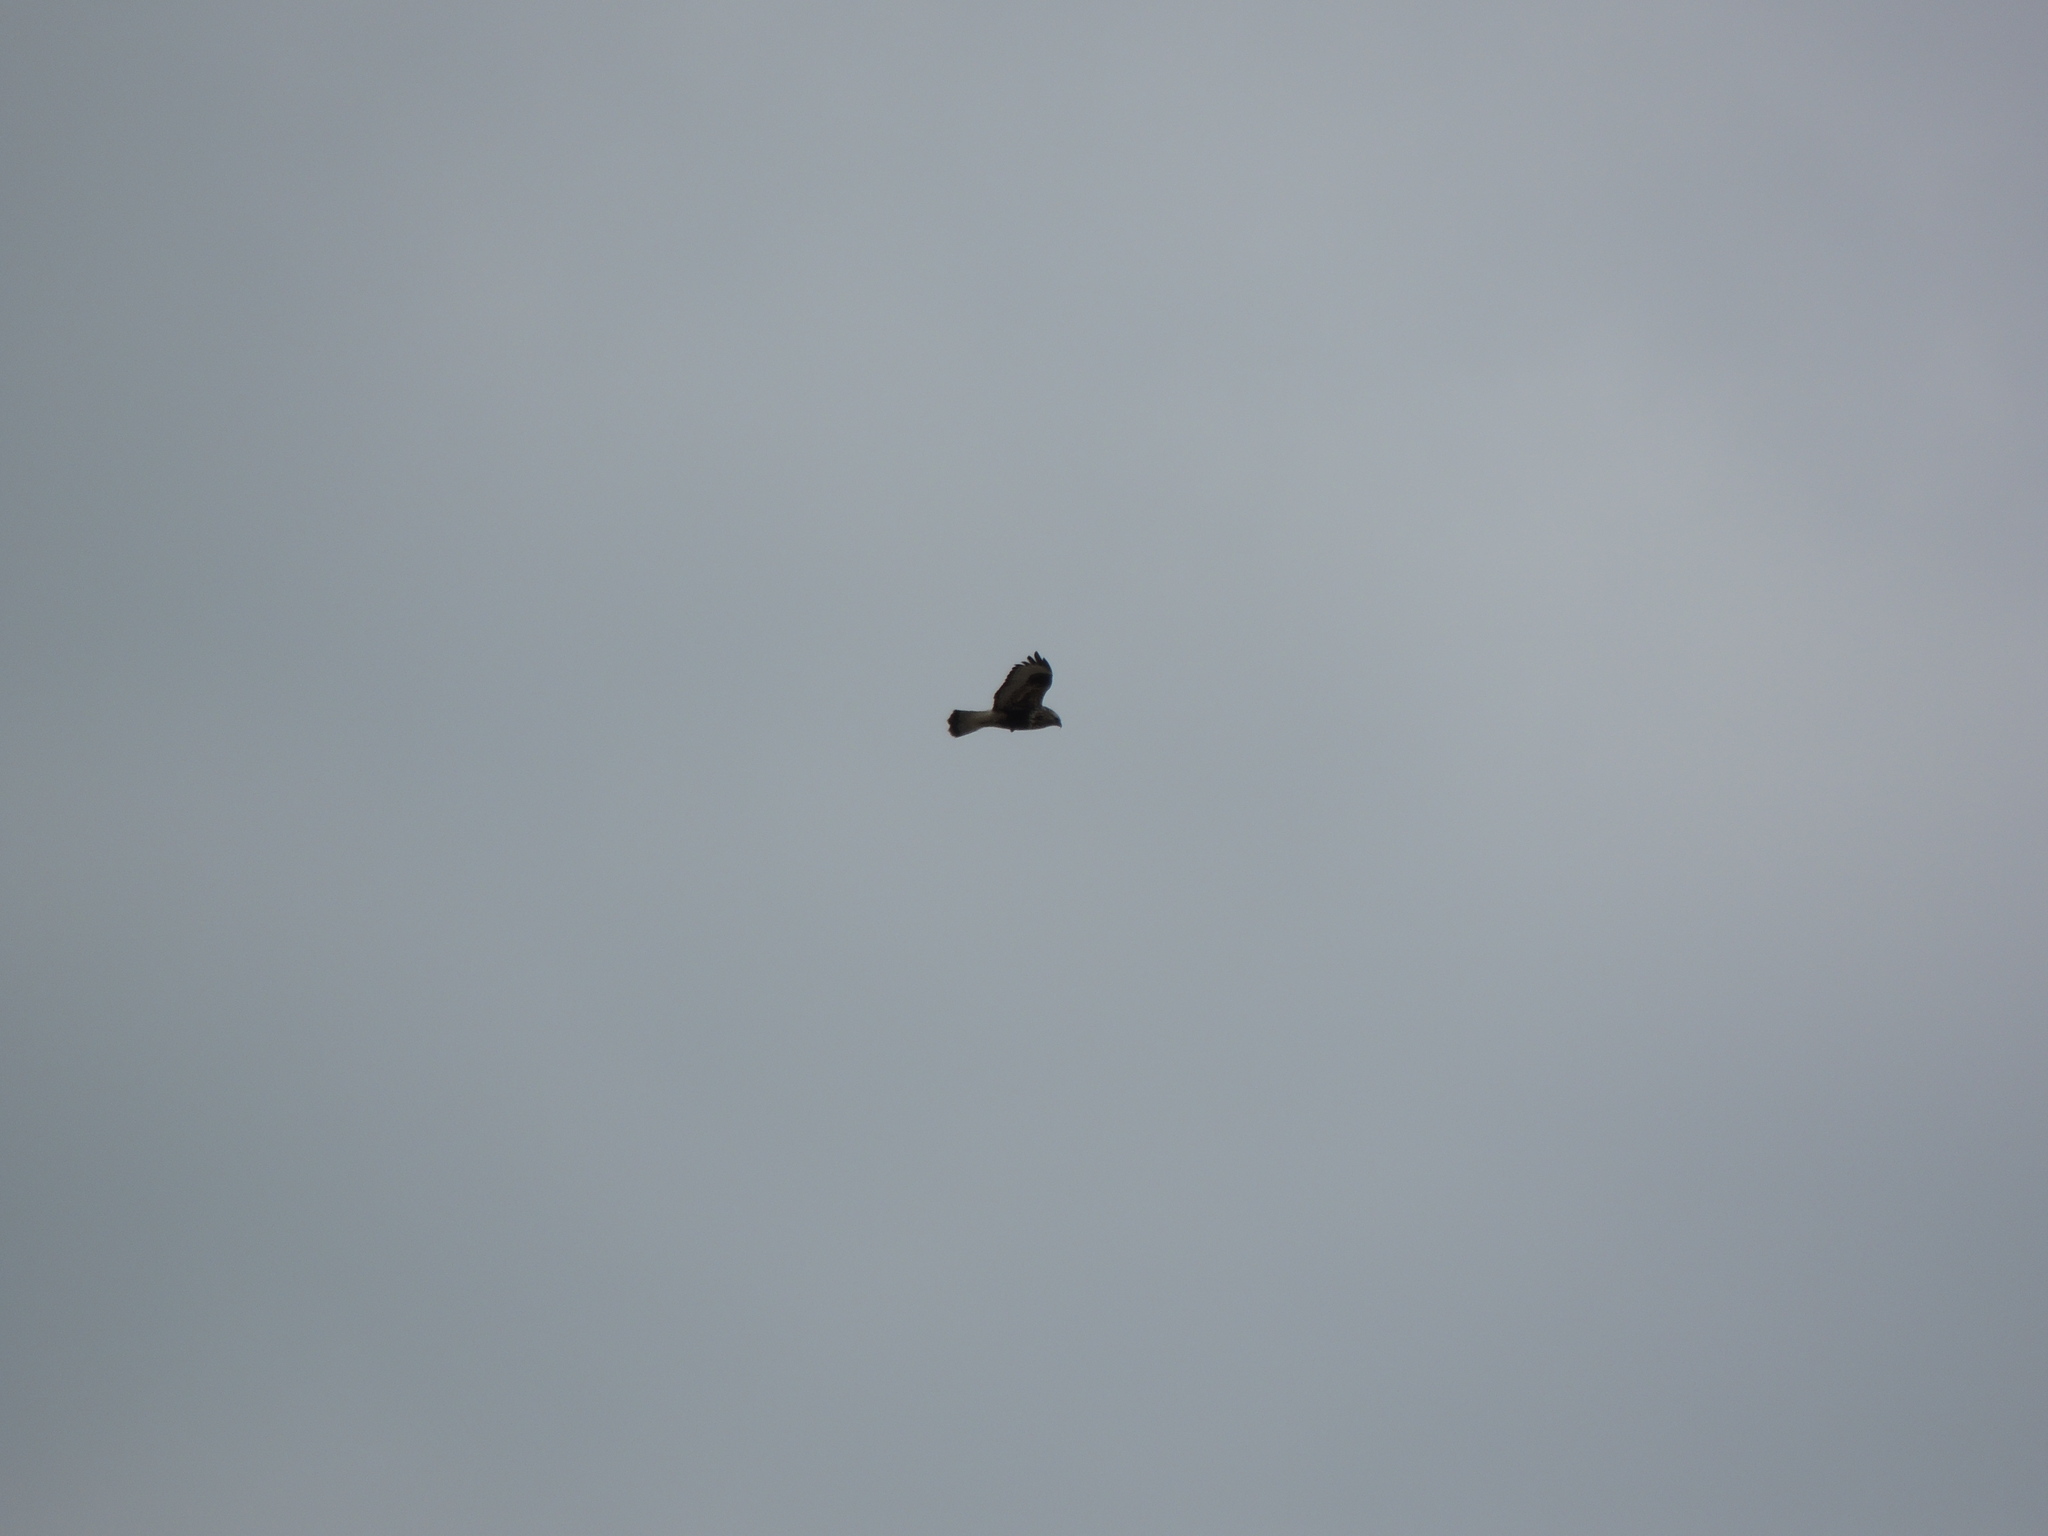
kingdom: Animalia
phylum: Chordata
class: Aves
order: Accipitriformes
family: Accipitridae
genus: Buteo
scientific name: Buteo lagopus
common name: Rough-legged buzzard
